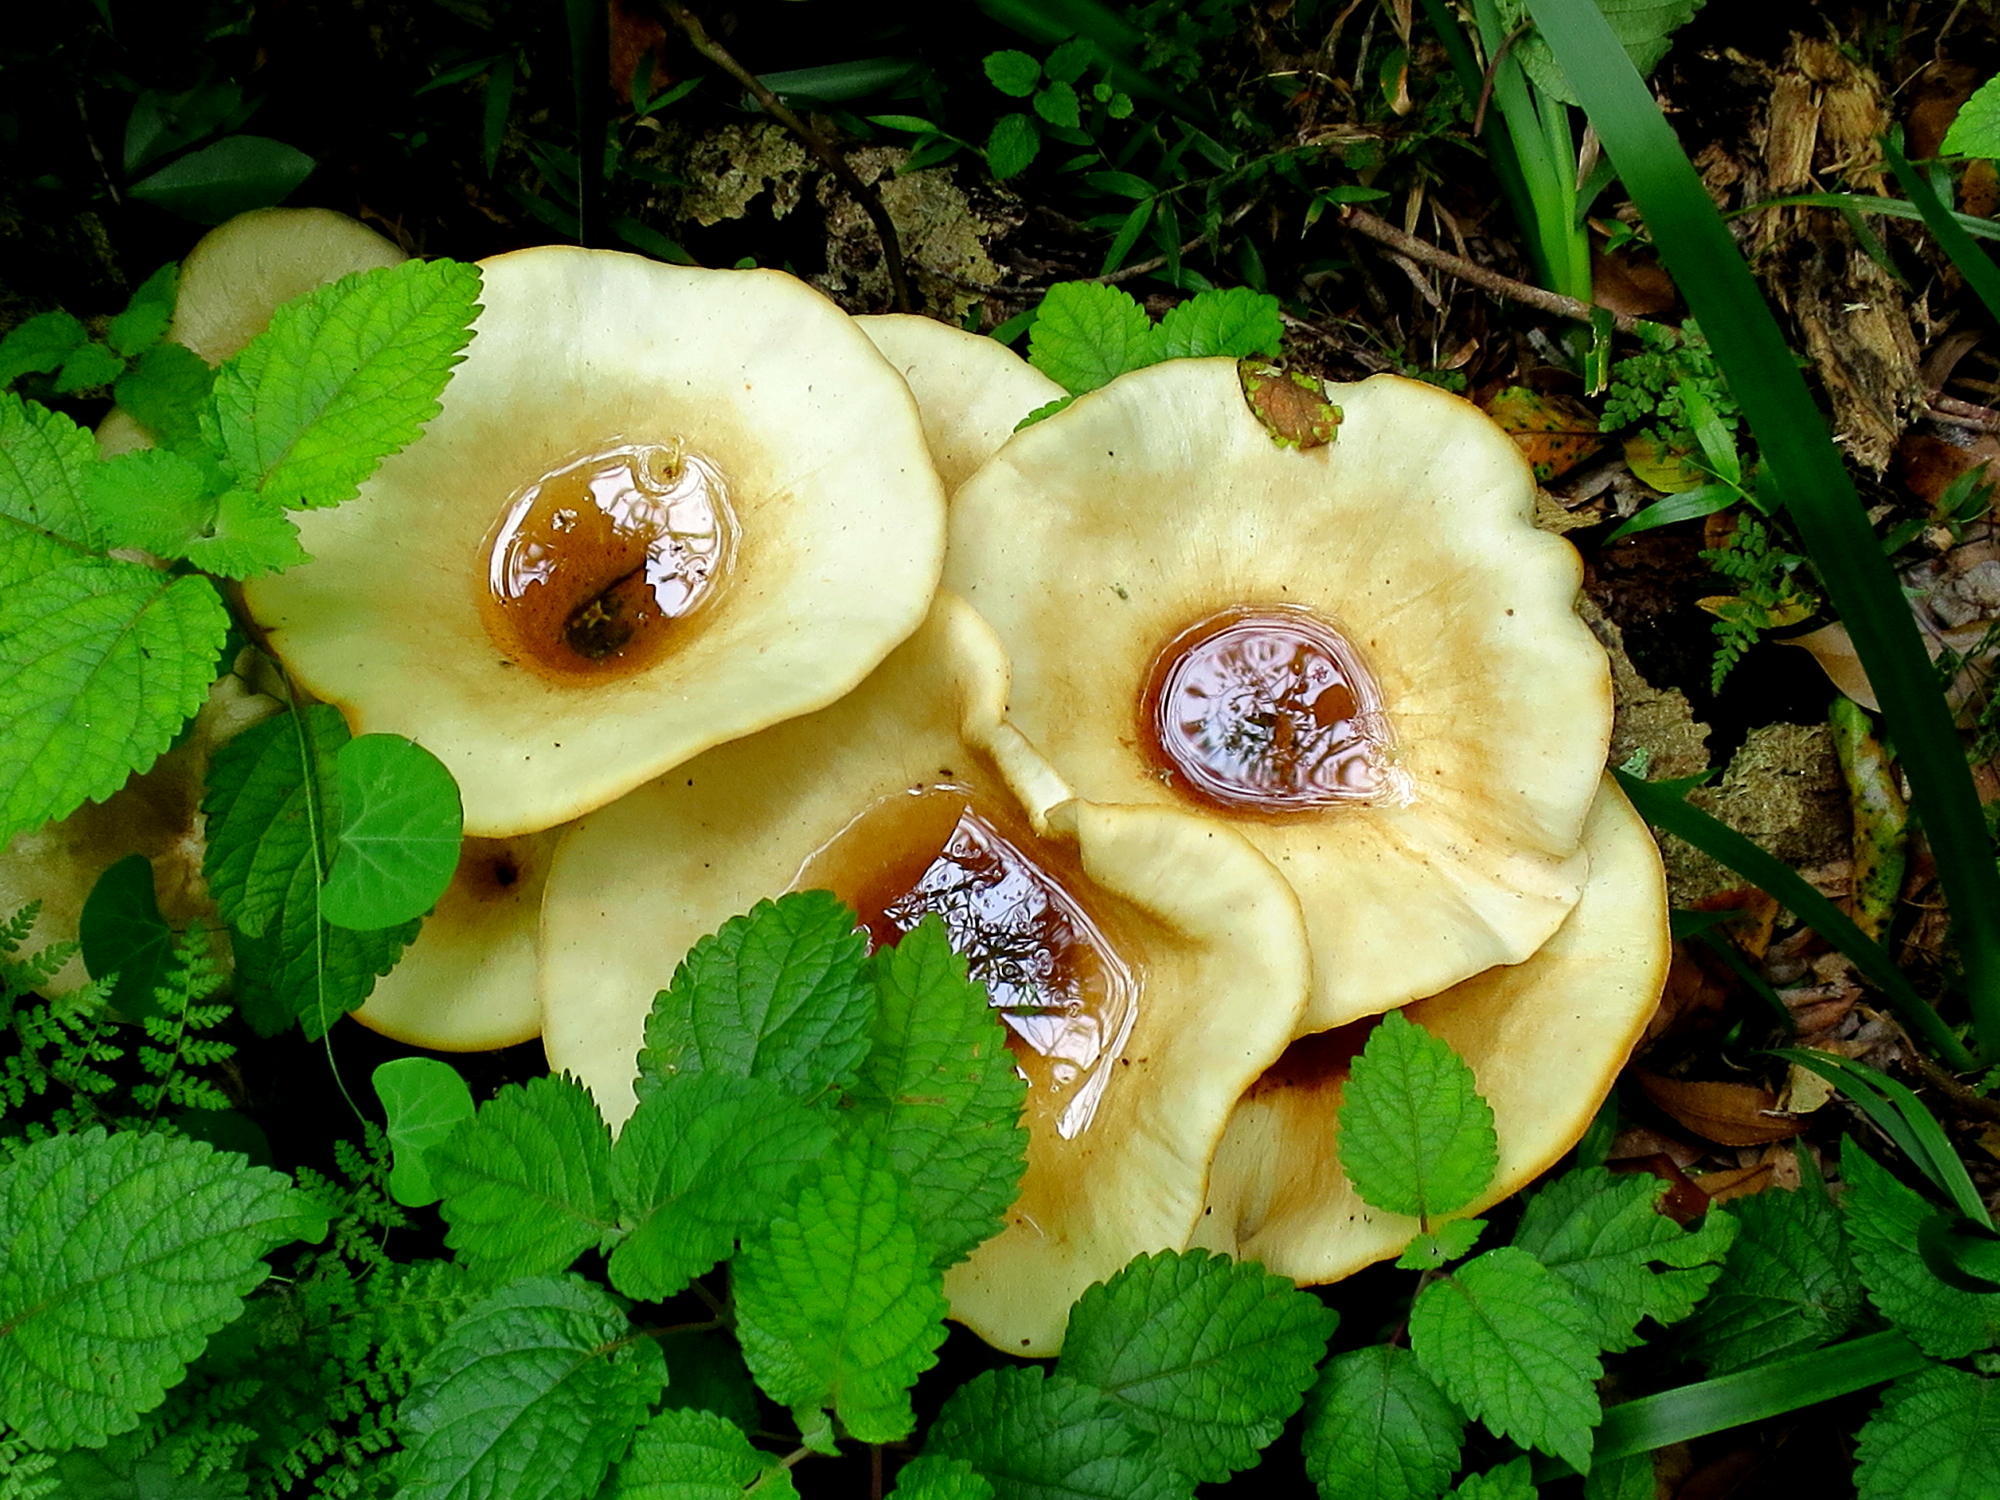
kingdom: Fungi
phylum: Basidiomycota
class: Agaricomycetes
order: Polyporales
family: Polyporaceae
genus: Lentinus
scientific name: Lentinus sajor-caju
